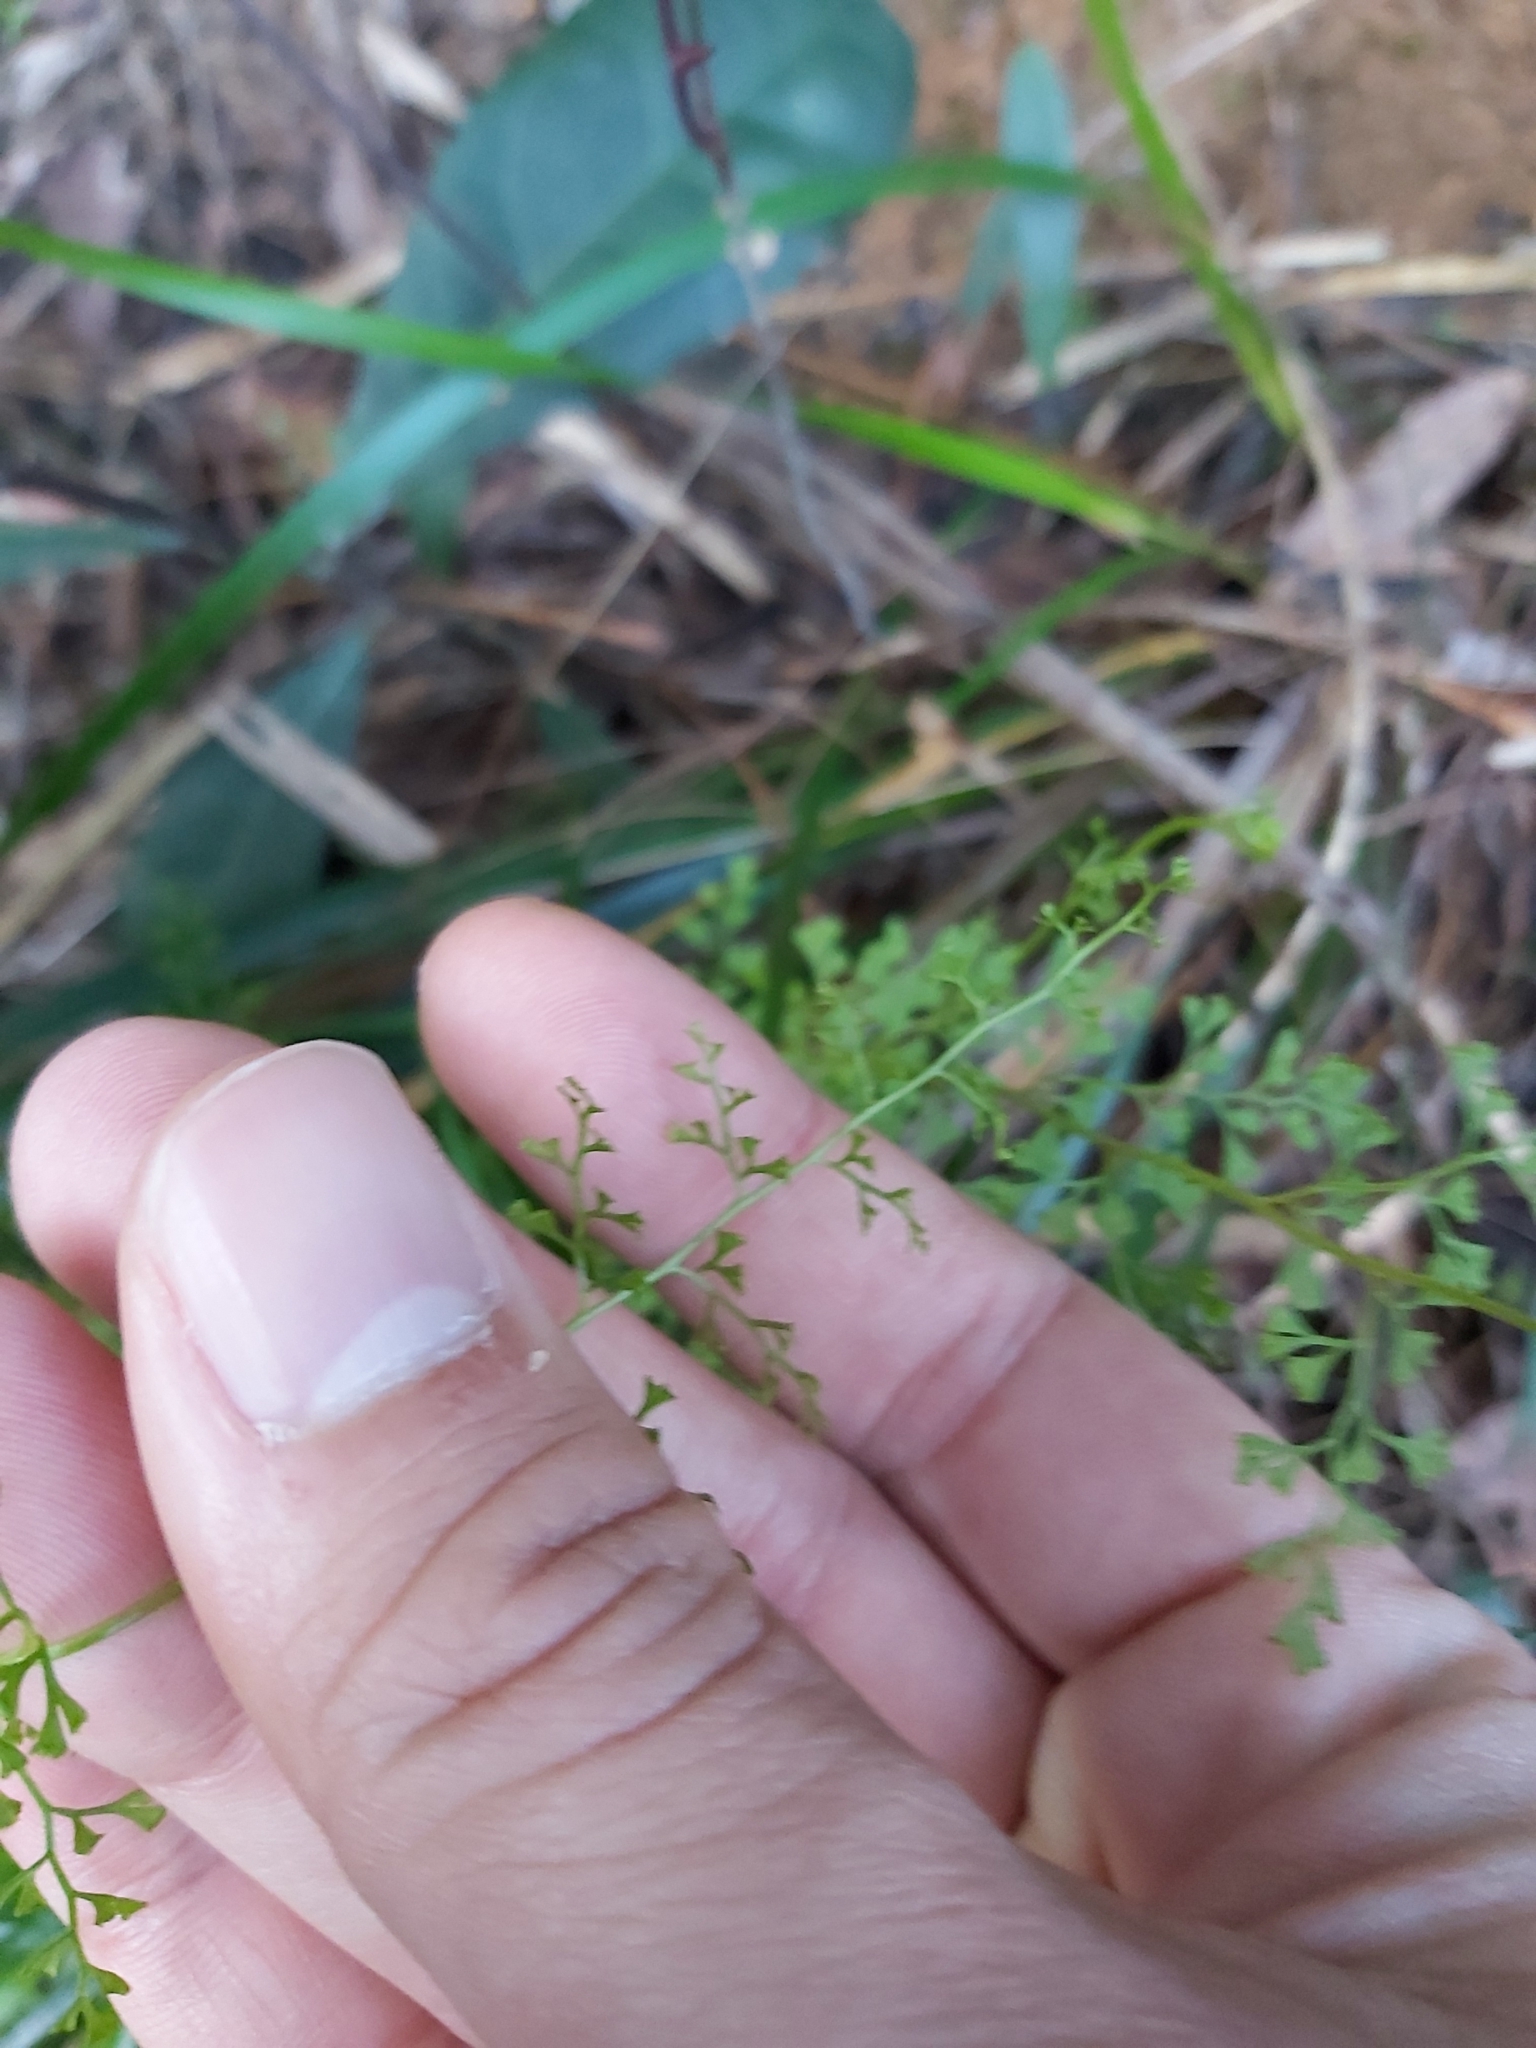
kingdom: Plantae
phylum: Tracheophyta
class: Polypodiopsida
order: Polypodiales
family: Lindsaeaceae
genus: Lindsaea
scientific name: Lindsaea microphylla
